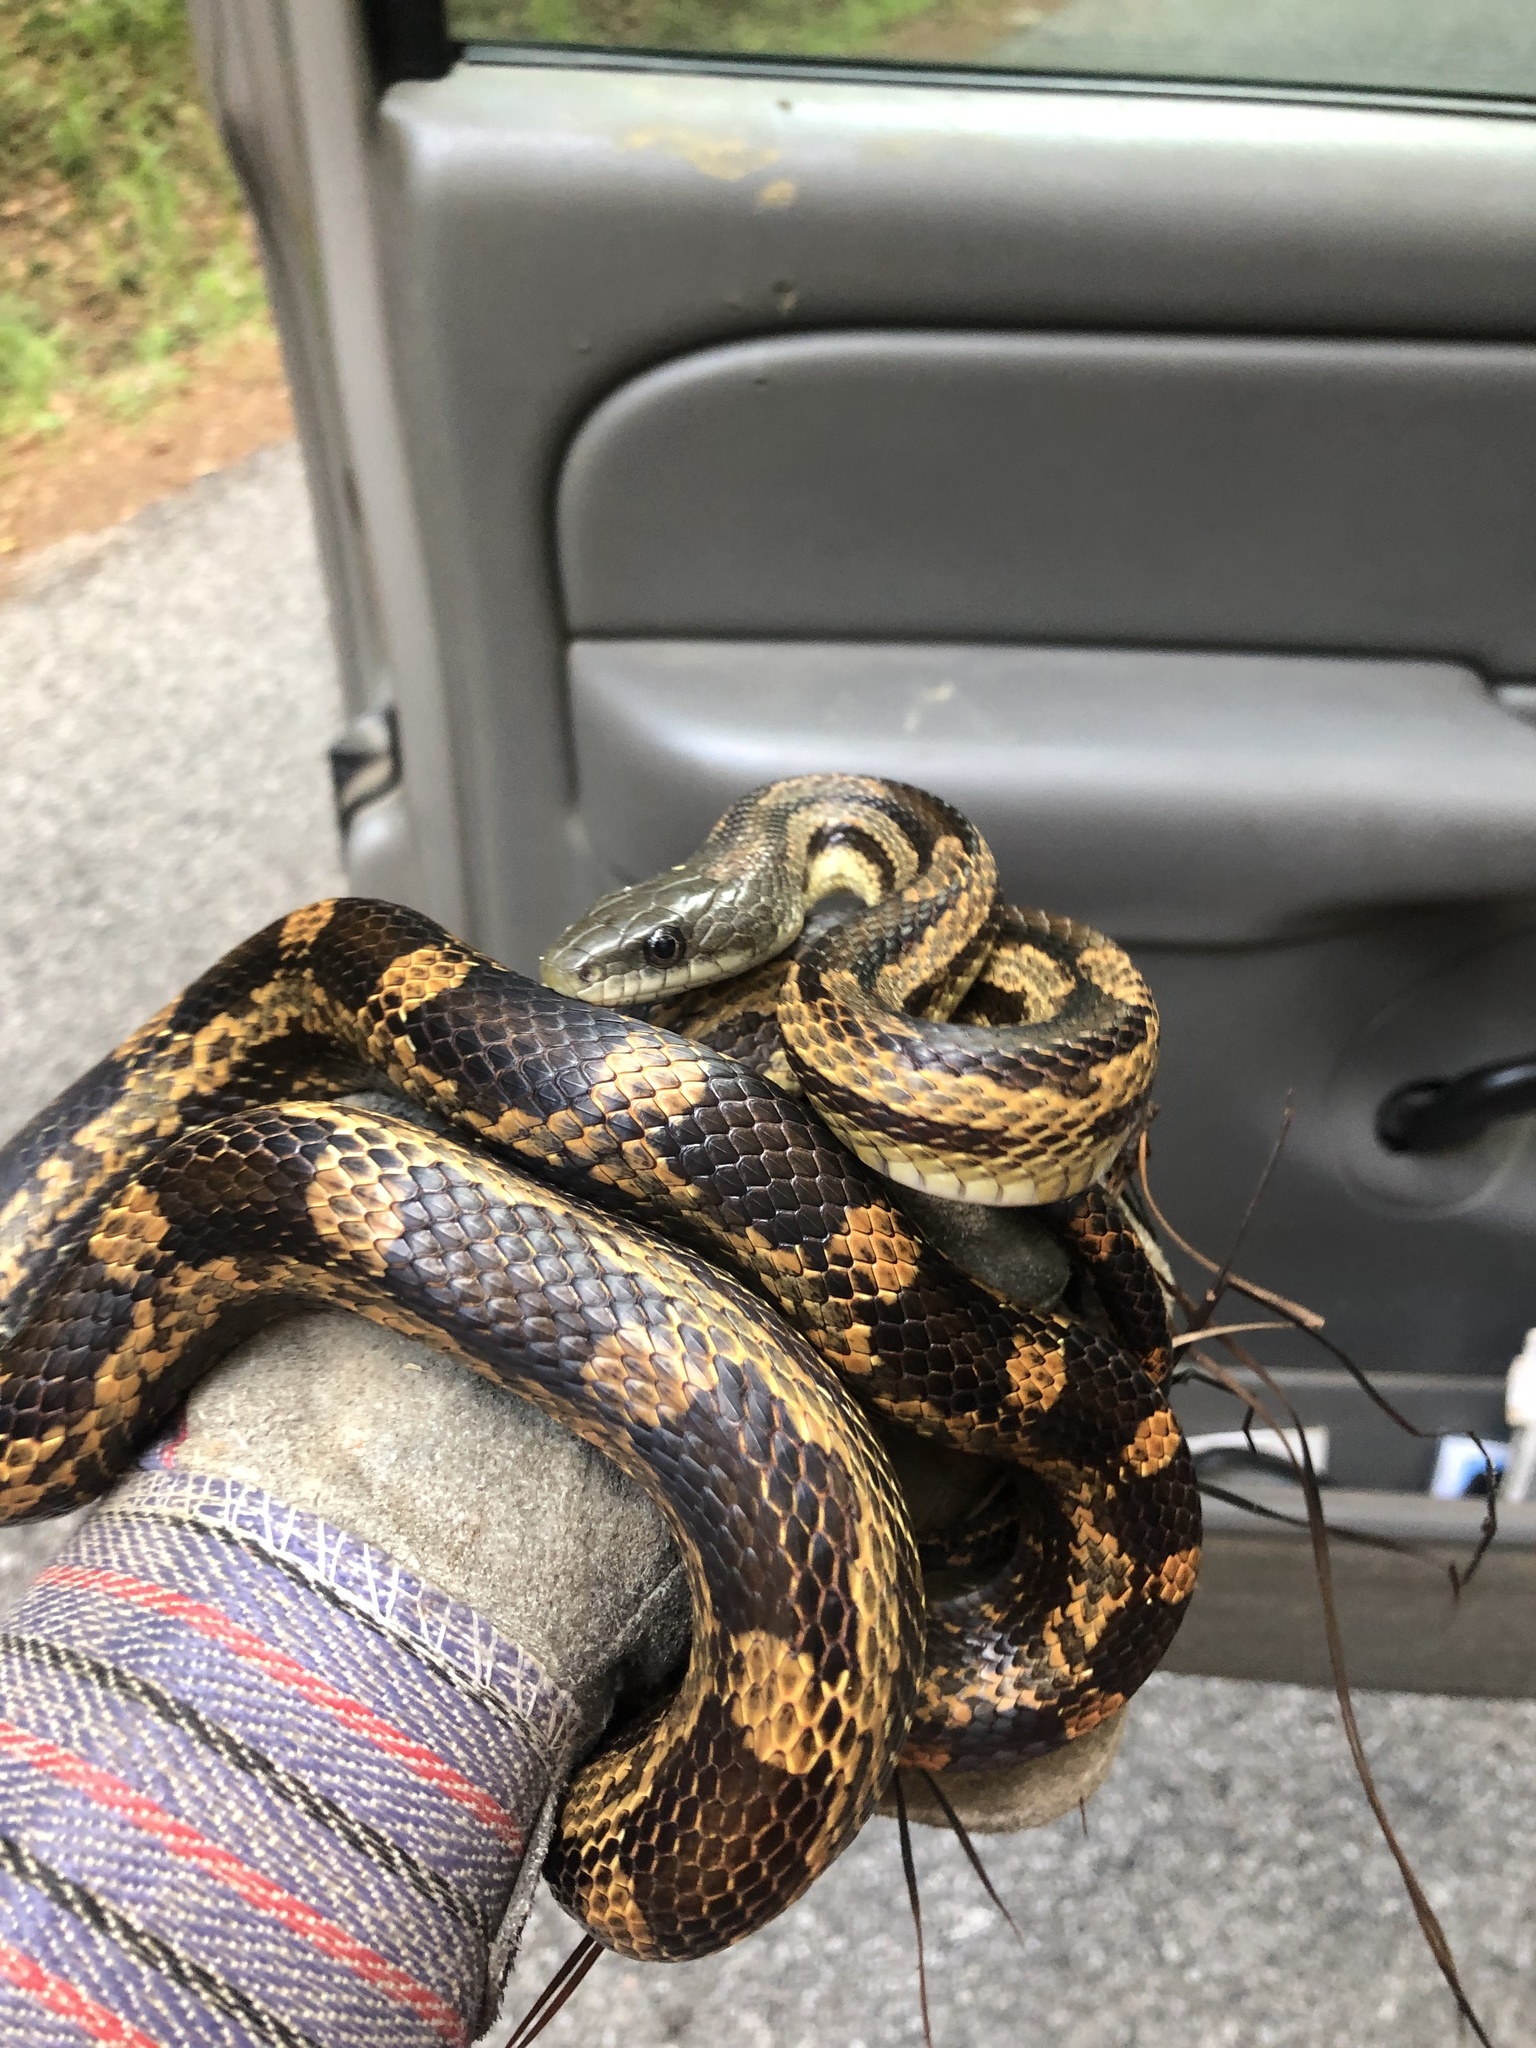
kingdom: Animalia
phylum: Chordata
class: Squamata
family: Colubridae
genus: Pantherophis
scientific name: Pantherophis spiloides
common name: Gray rat snake
